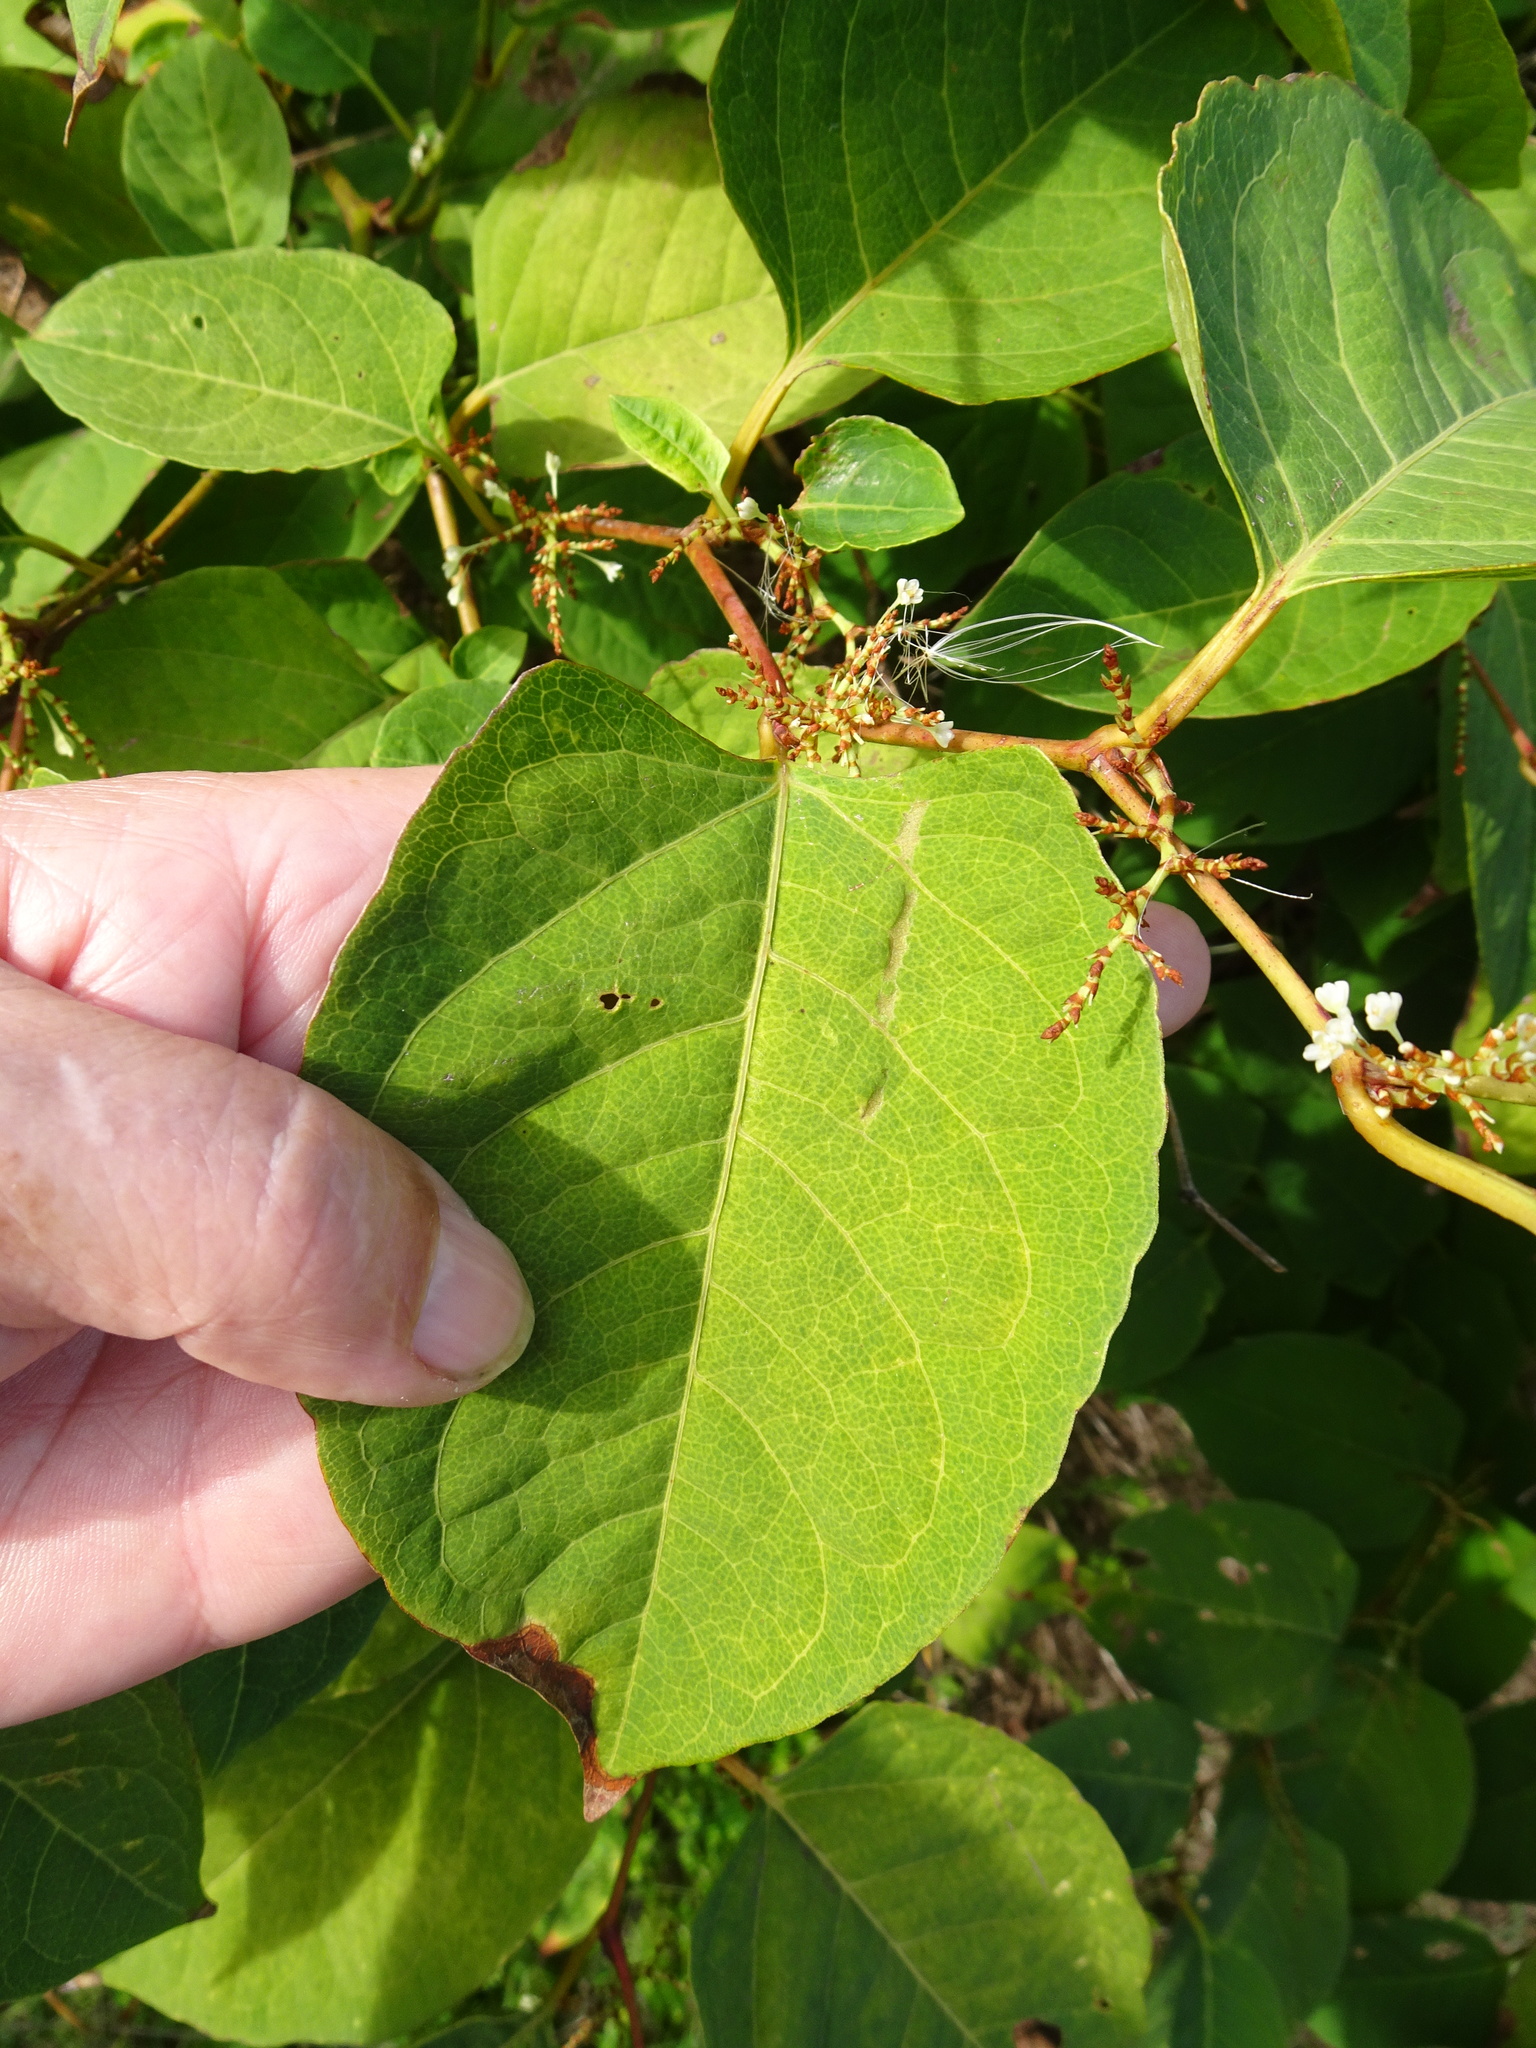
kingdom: Plantae
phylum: Tracheophyta
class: Magnoliopsida
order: Caryophyllales
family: Polygonaceae
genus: Reynoutria
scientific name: Reynoutria japonica
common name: Japanese knotweed
